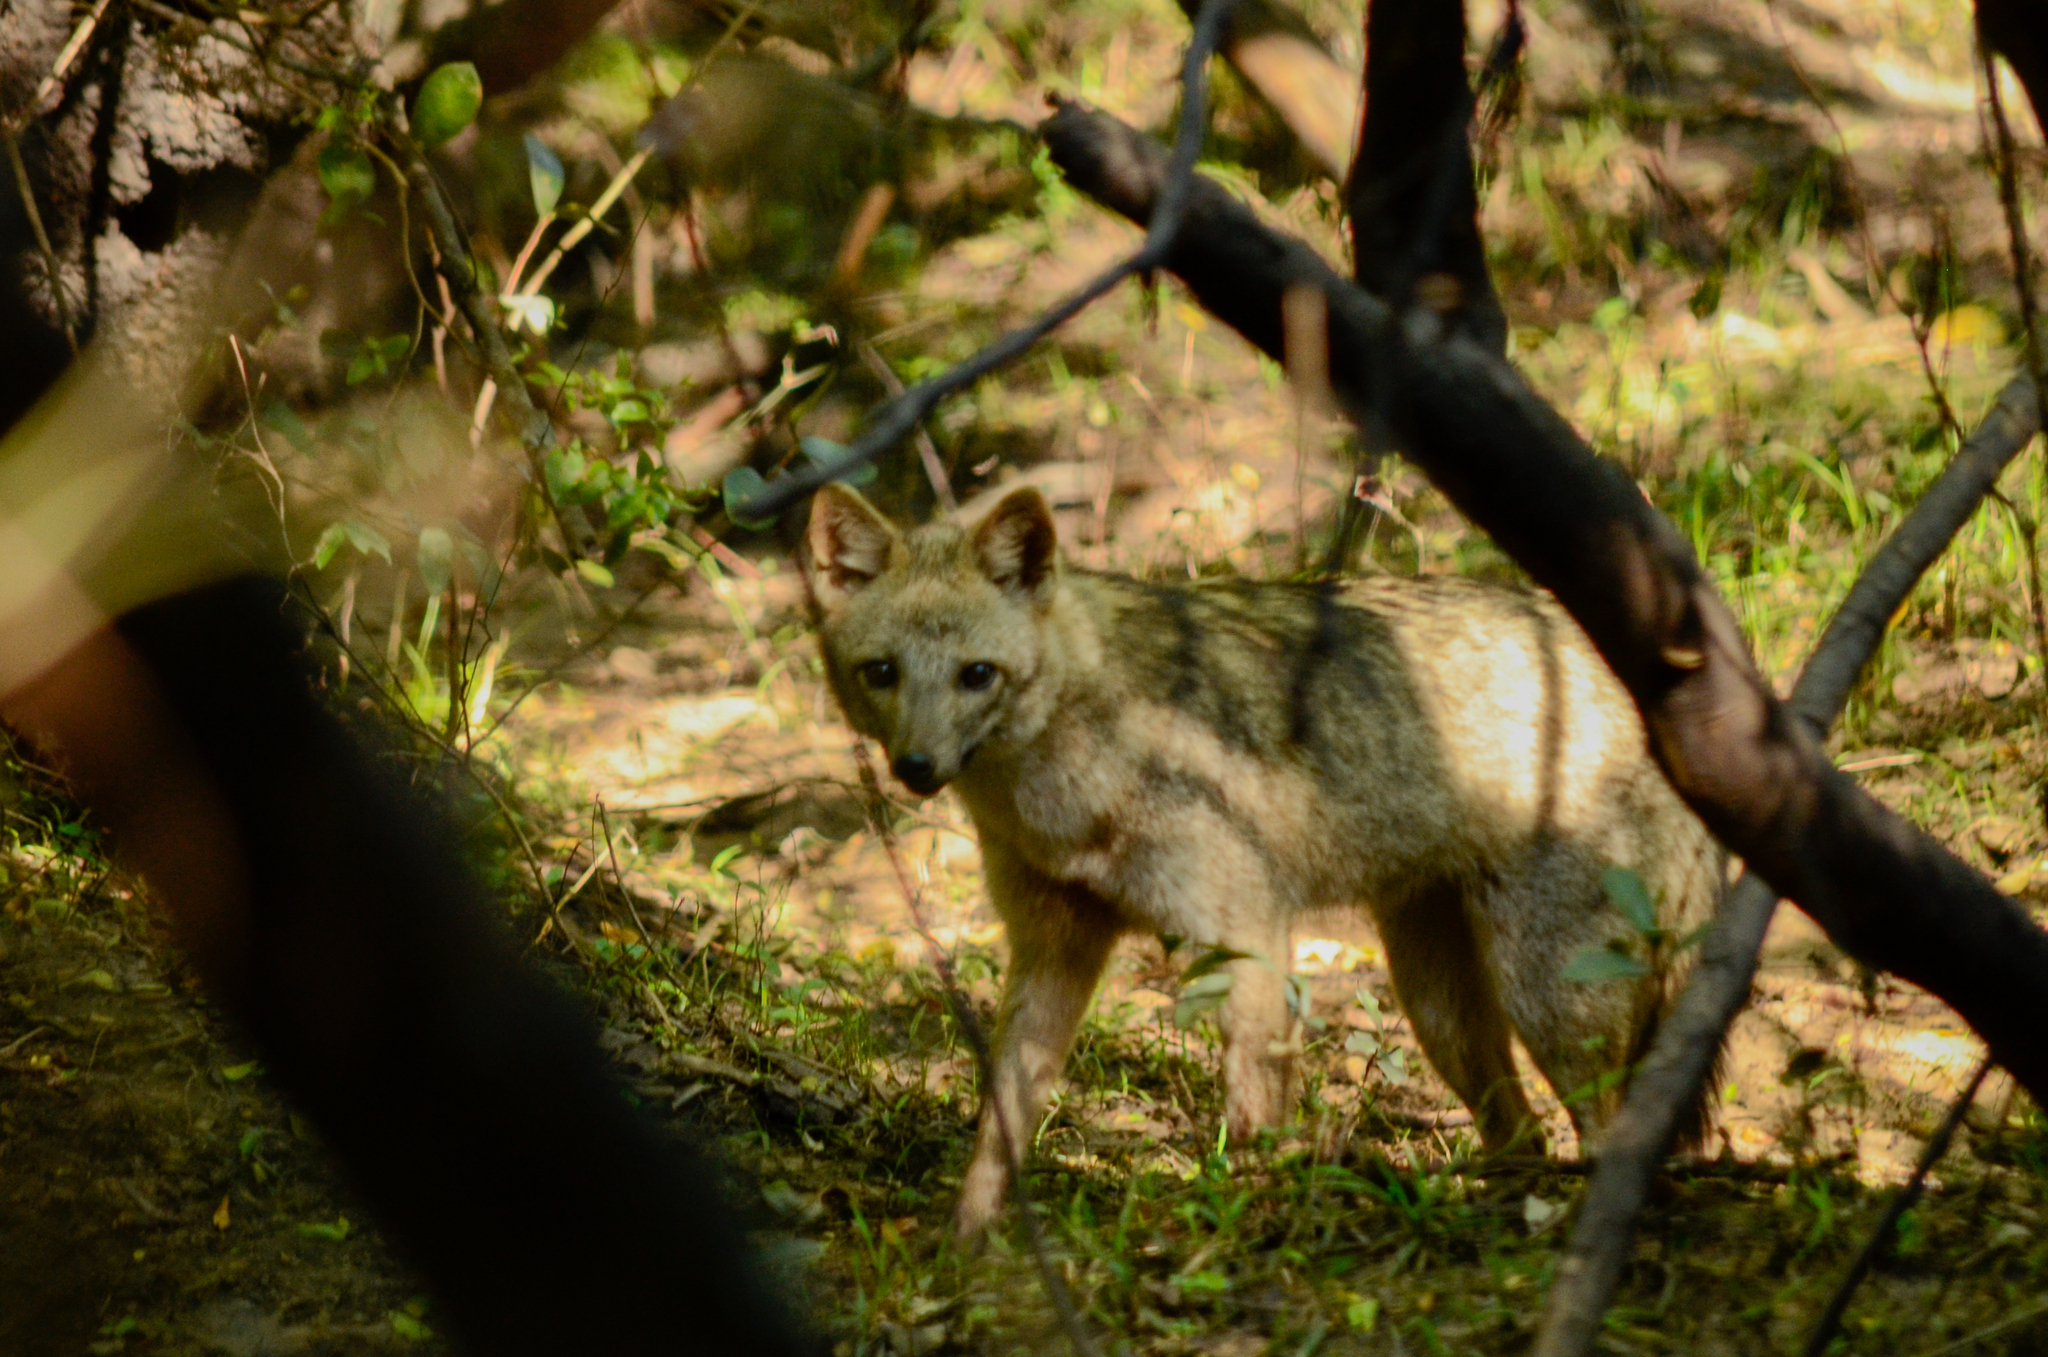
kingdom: Animalia
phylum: Chordata
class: Mammalia
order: Carnivora
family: Canidae
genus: Cerdocyon
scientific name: Cerdocyon thous
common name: Crab-eating fox
